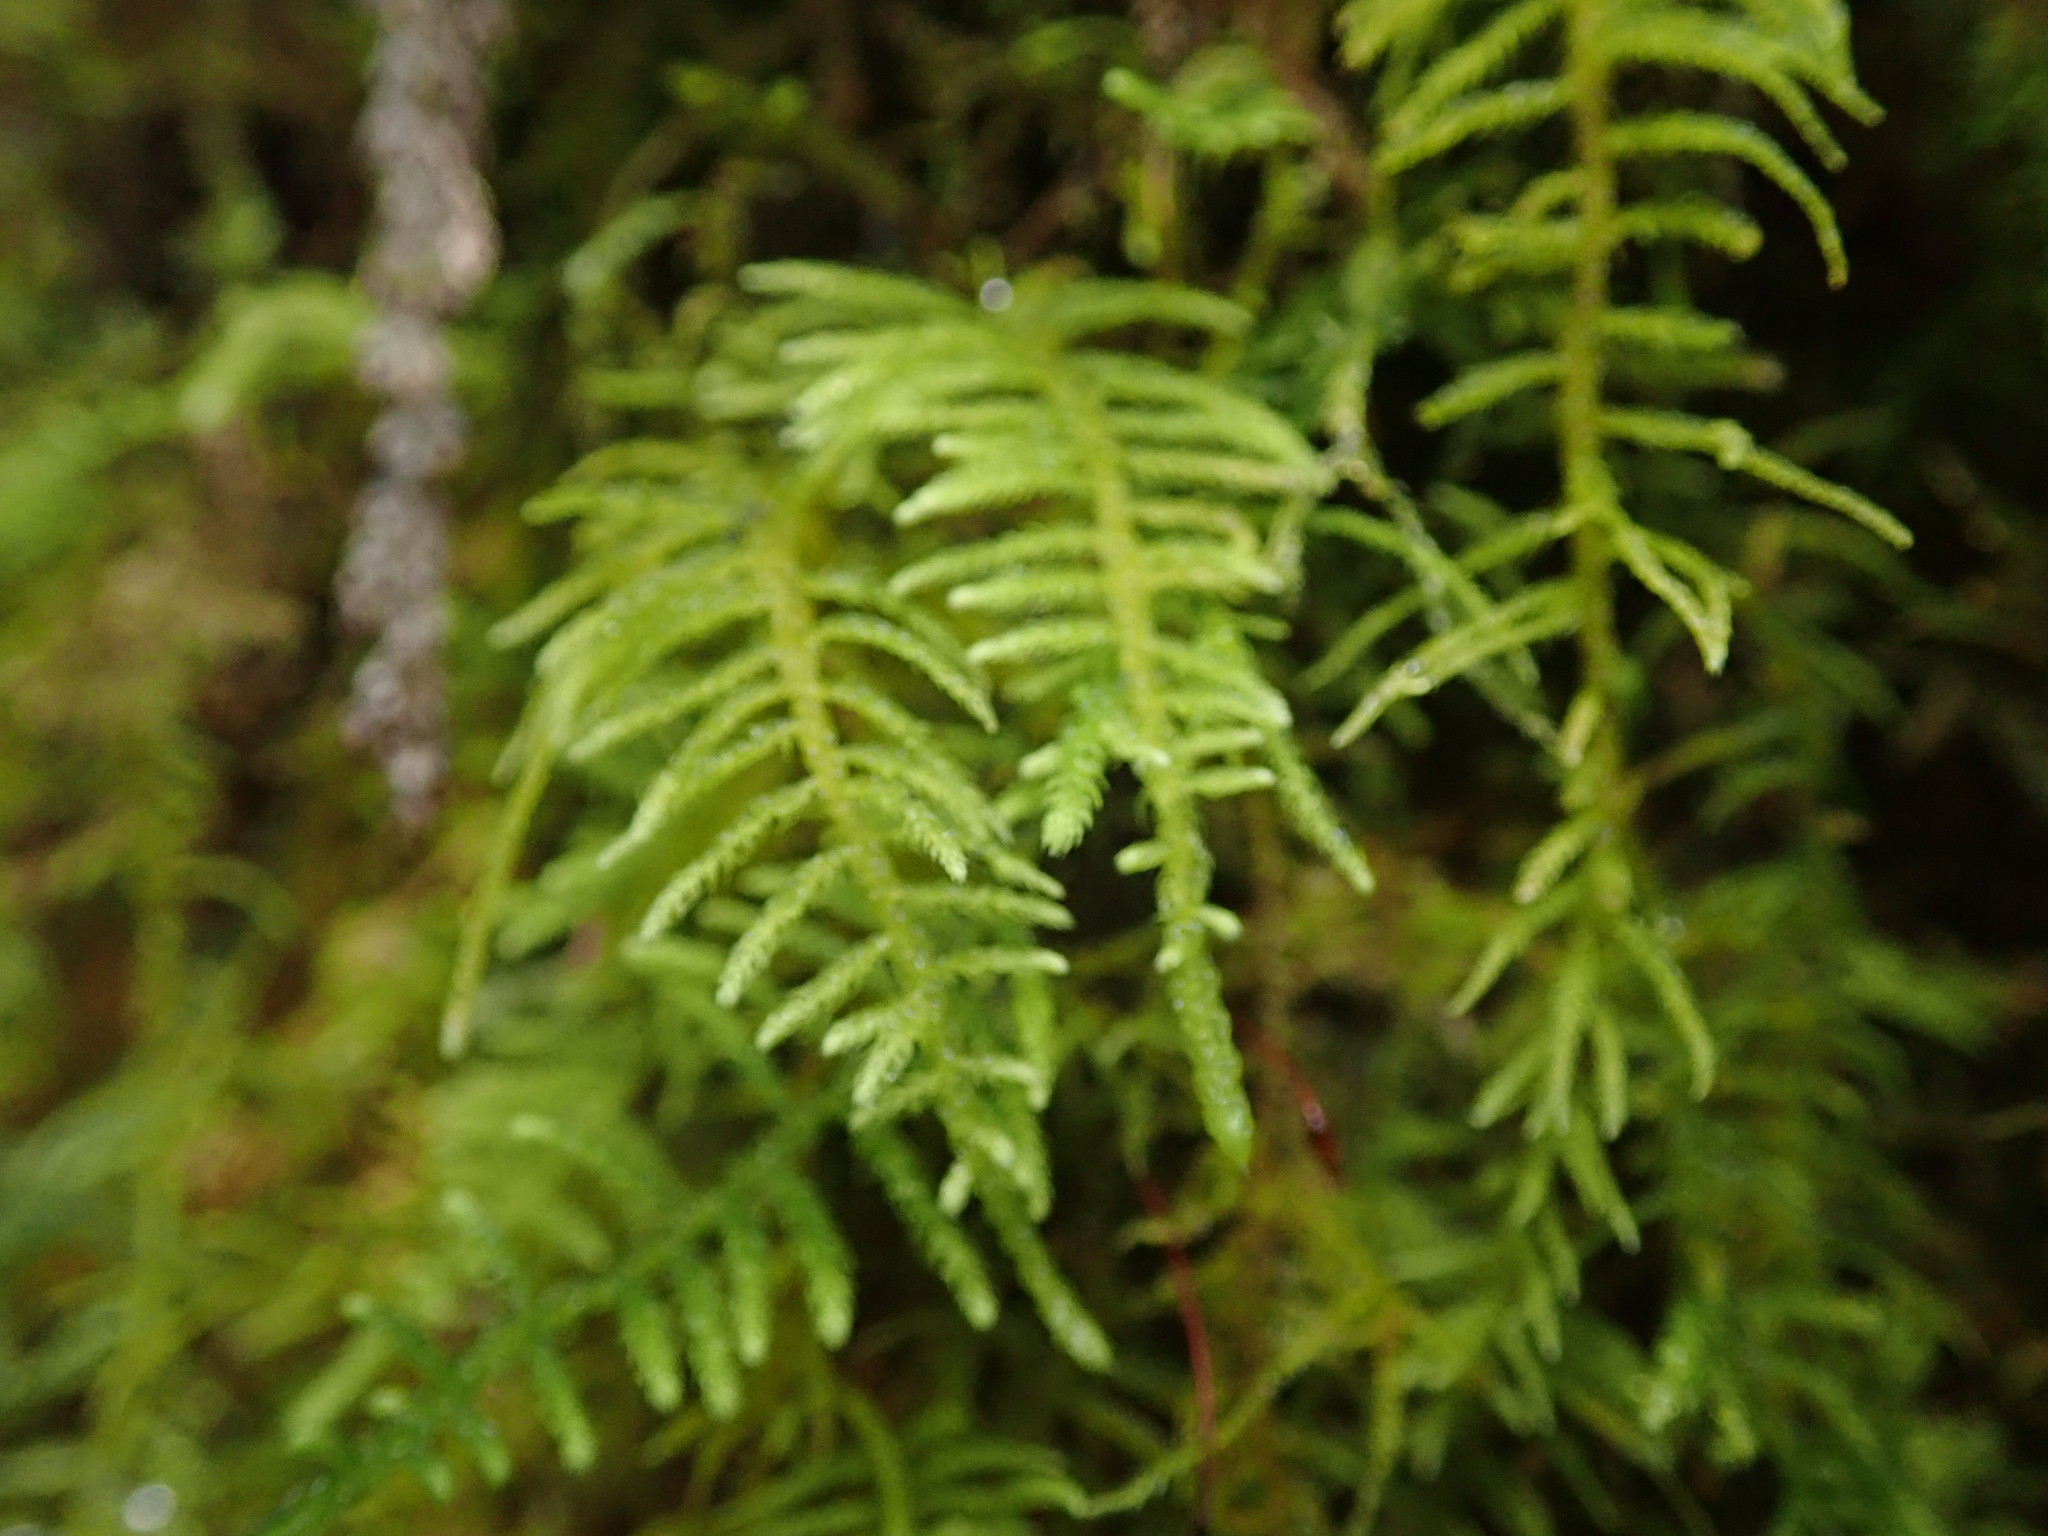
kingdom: Plantae
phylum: Bryophyta
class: Bryopsida
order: Hypnales
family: Brachytheciaceae
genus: Claopodium
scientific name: Claopodium bolanderi
